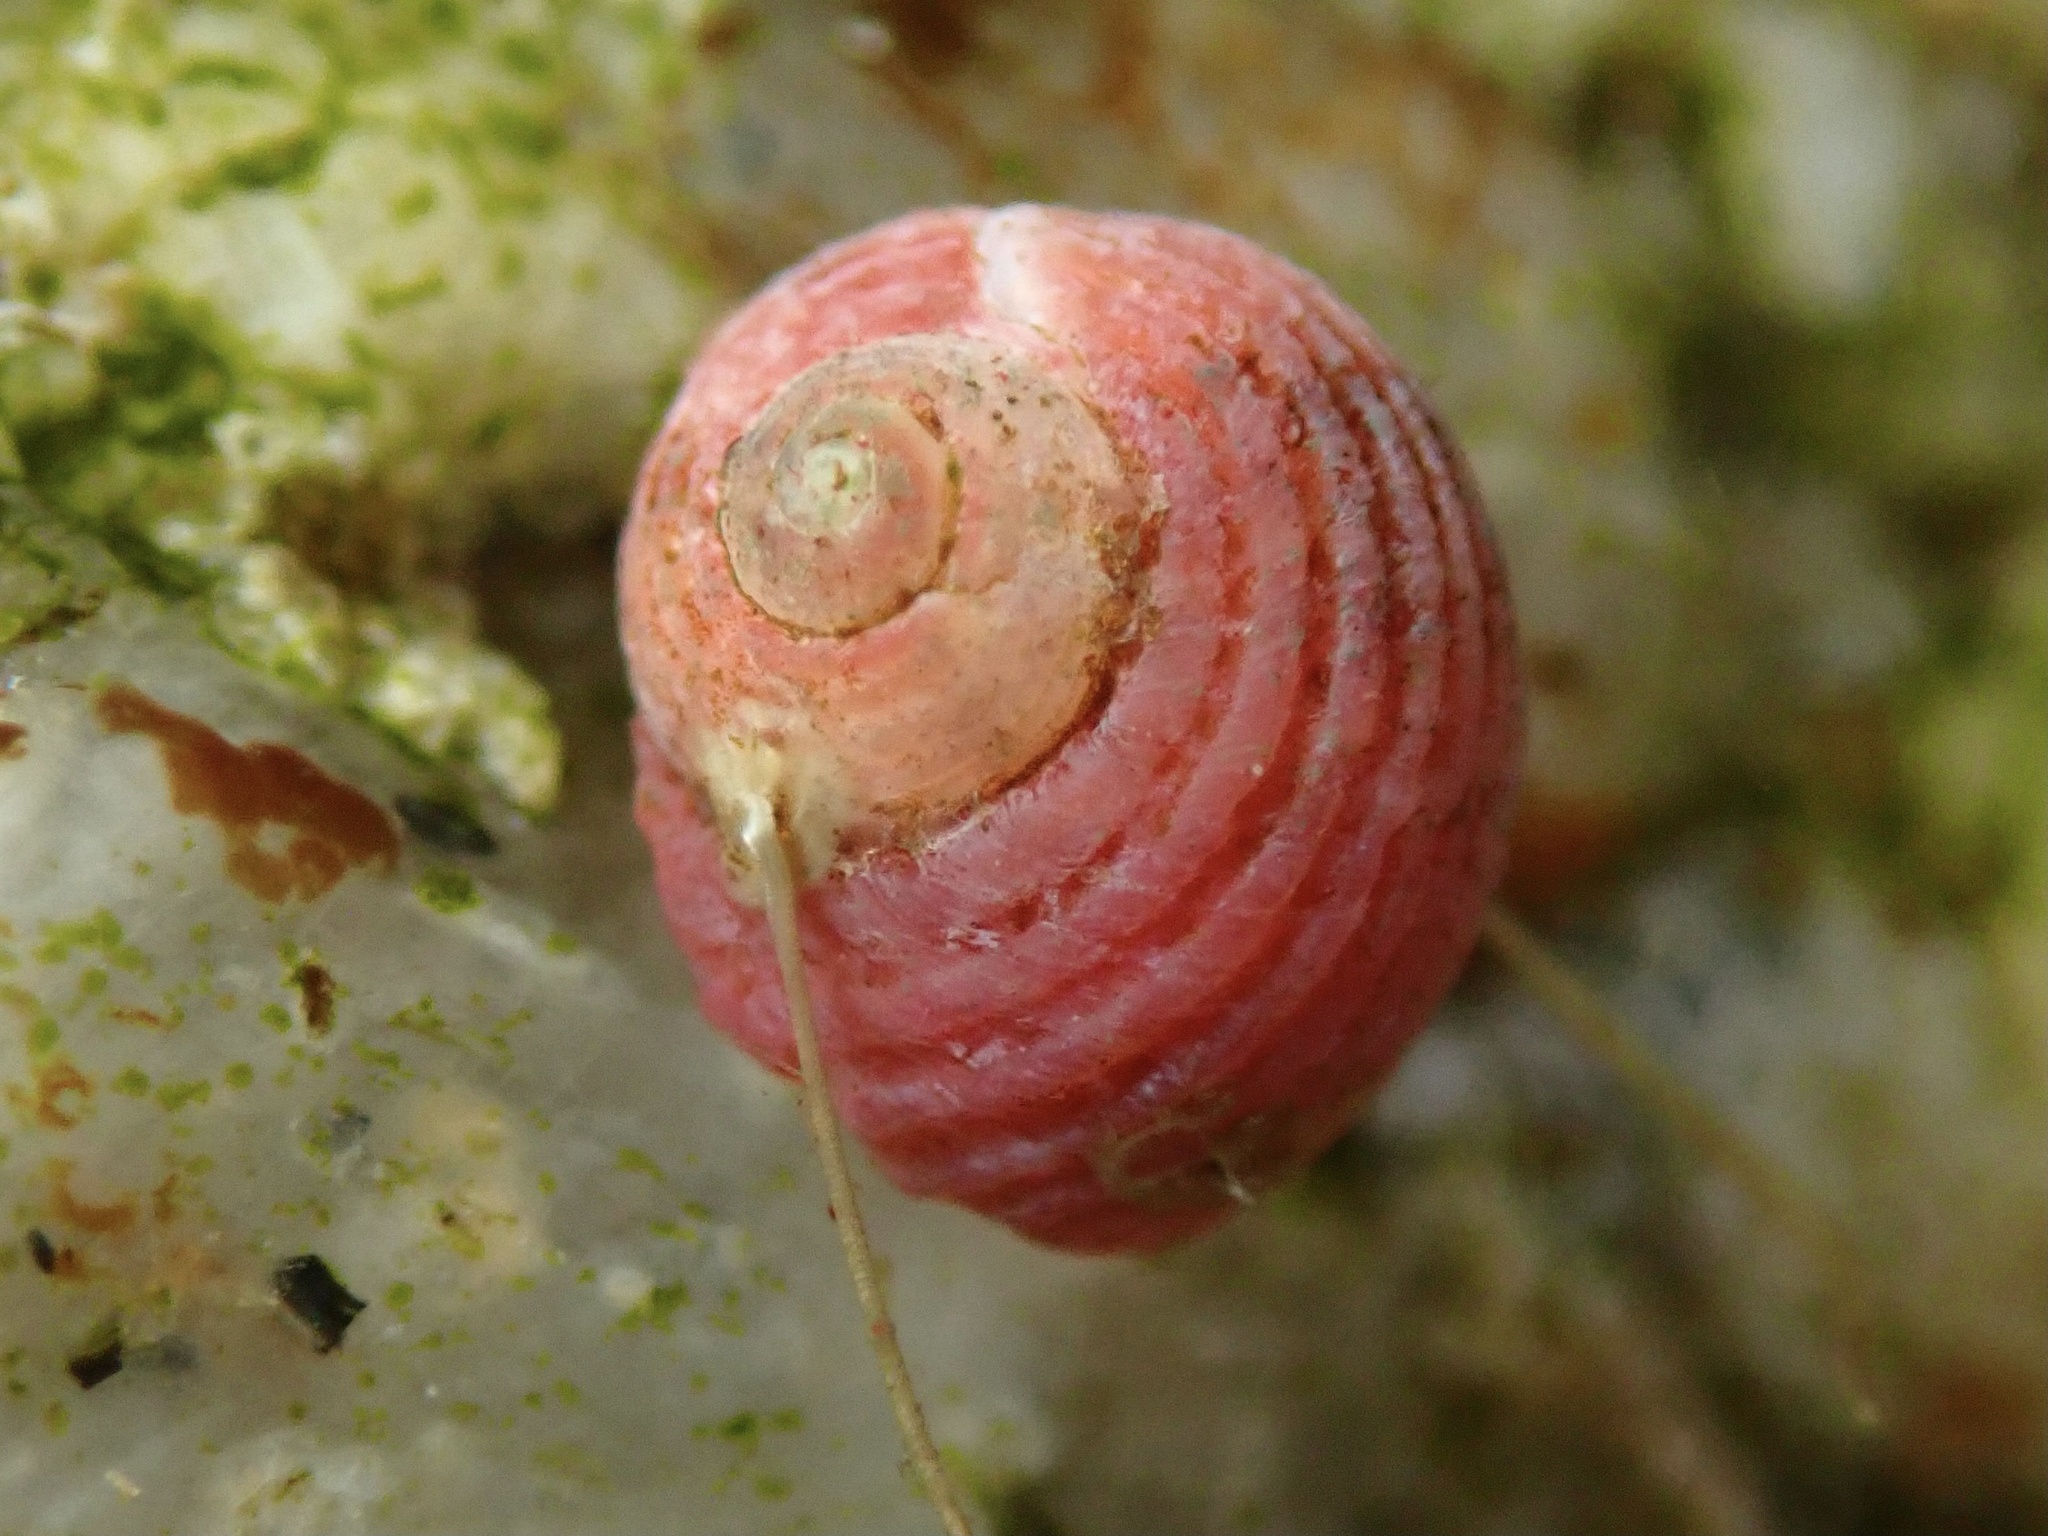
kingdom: Animalia
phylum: Mollusca
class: Gastropoda
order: Trochida
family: Colloniidae
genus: Gigahomalopoma
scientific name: Gigahomalopoma luridum
